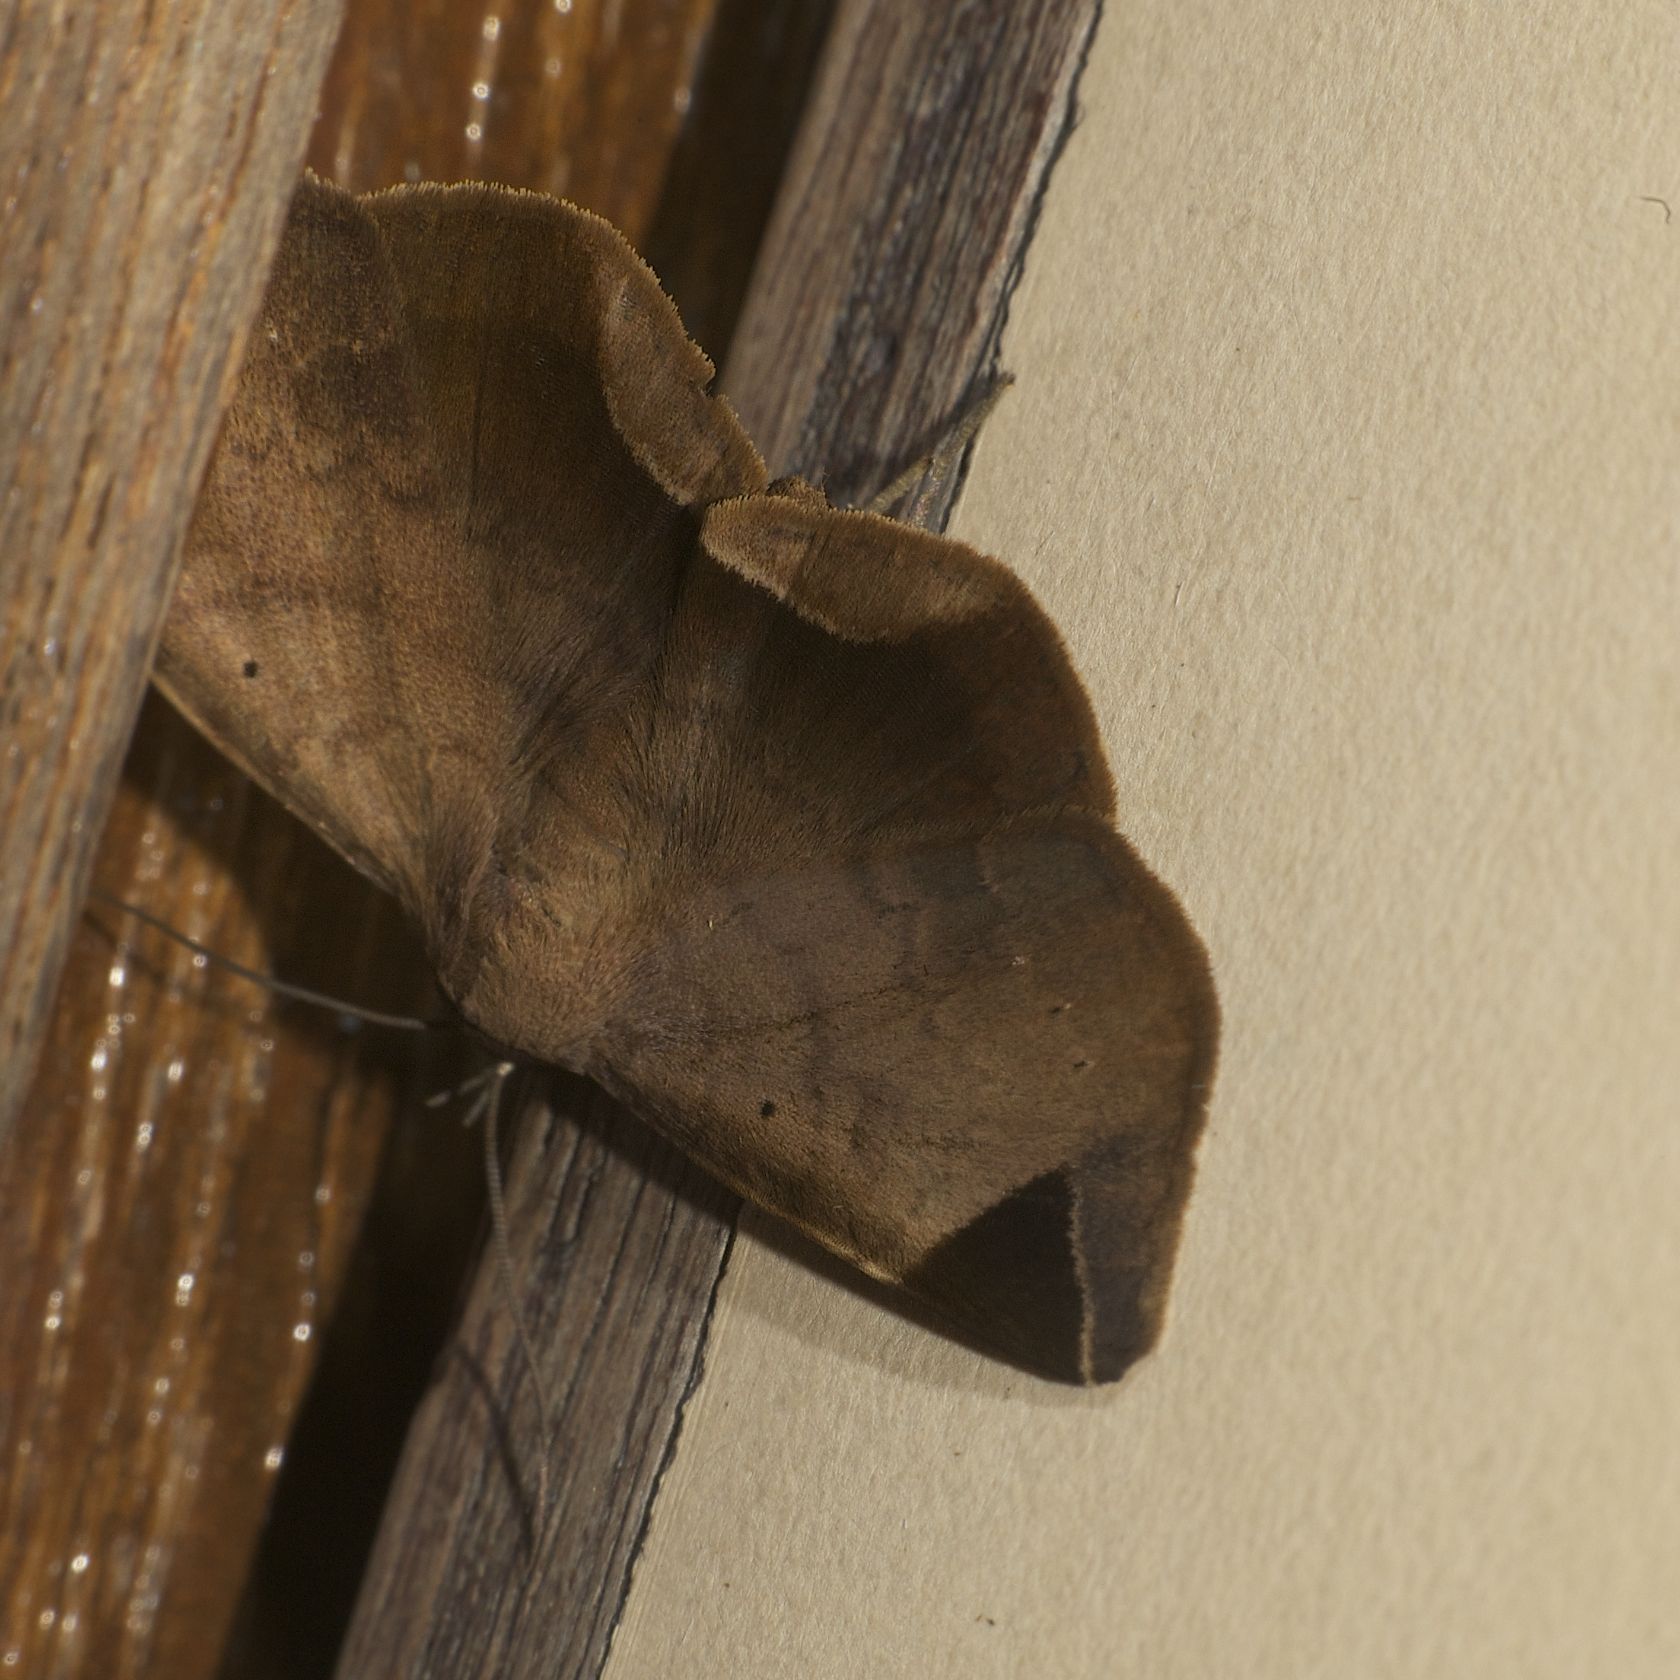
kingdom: Animalia
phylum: Arthropoda
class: Insecta
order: Lepidoptera
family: Erebidae
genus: Psimada
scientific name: Psimada quadripennis
